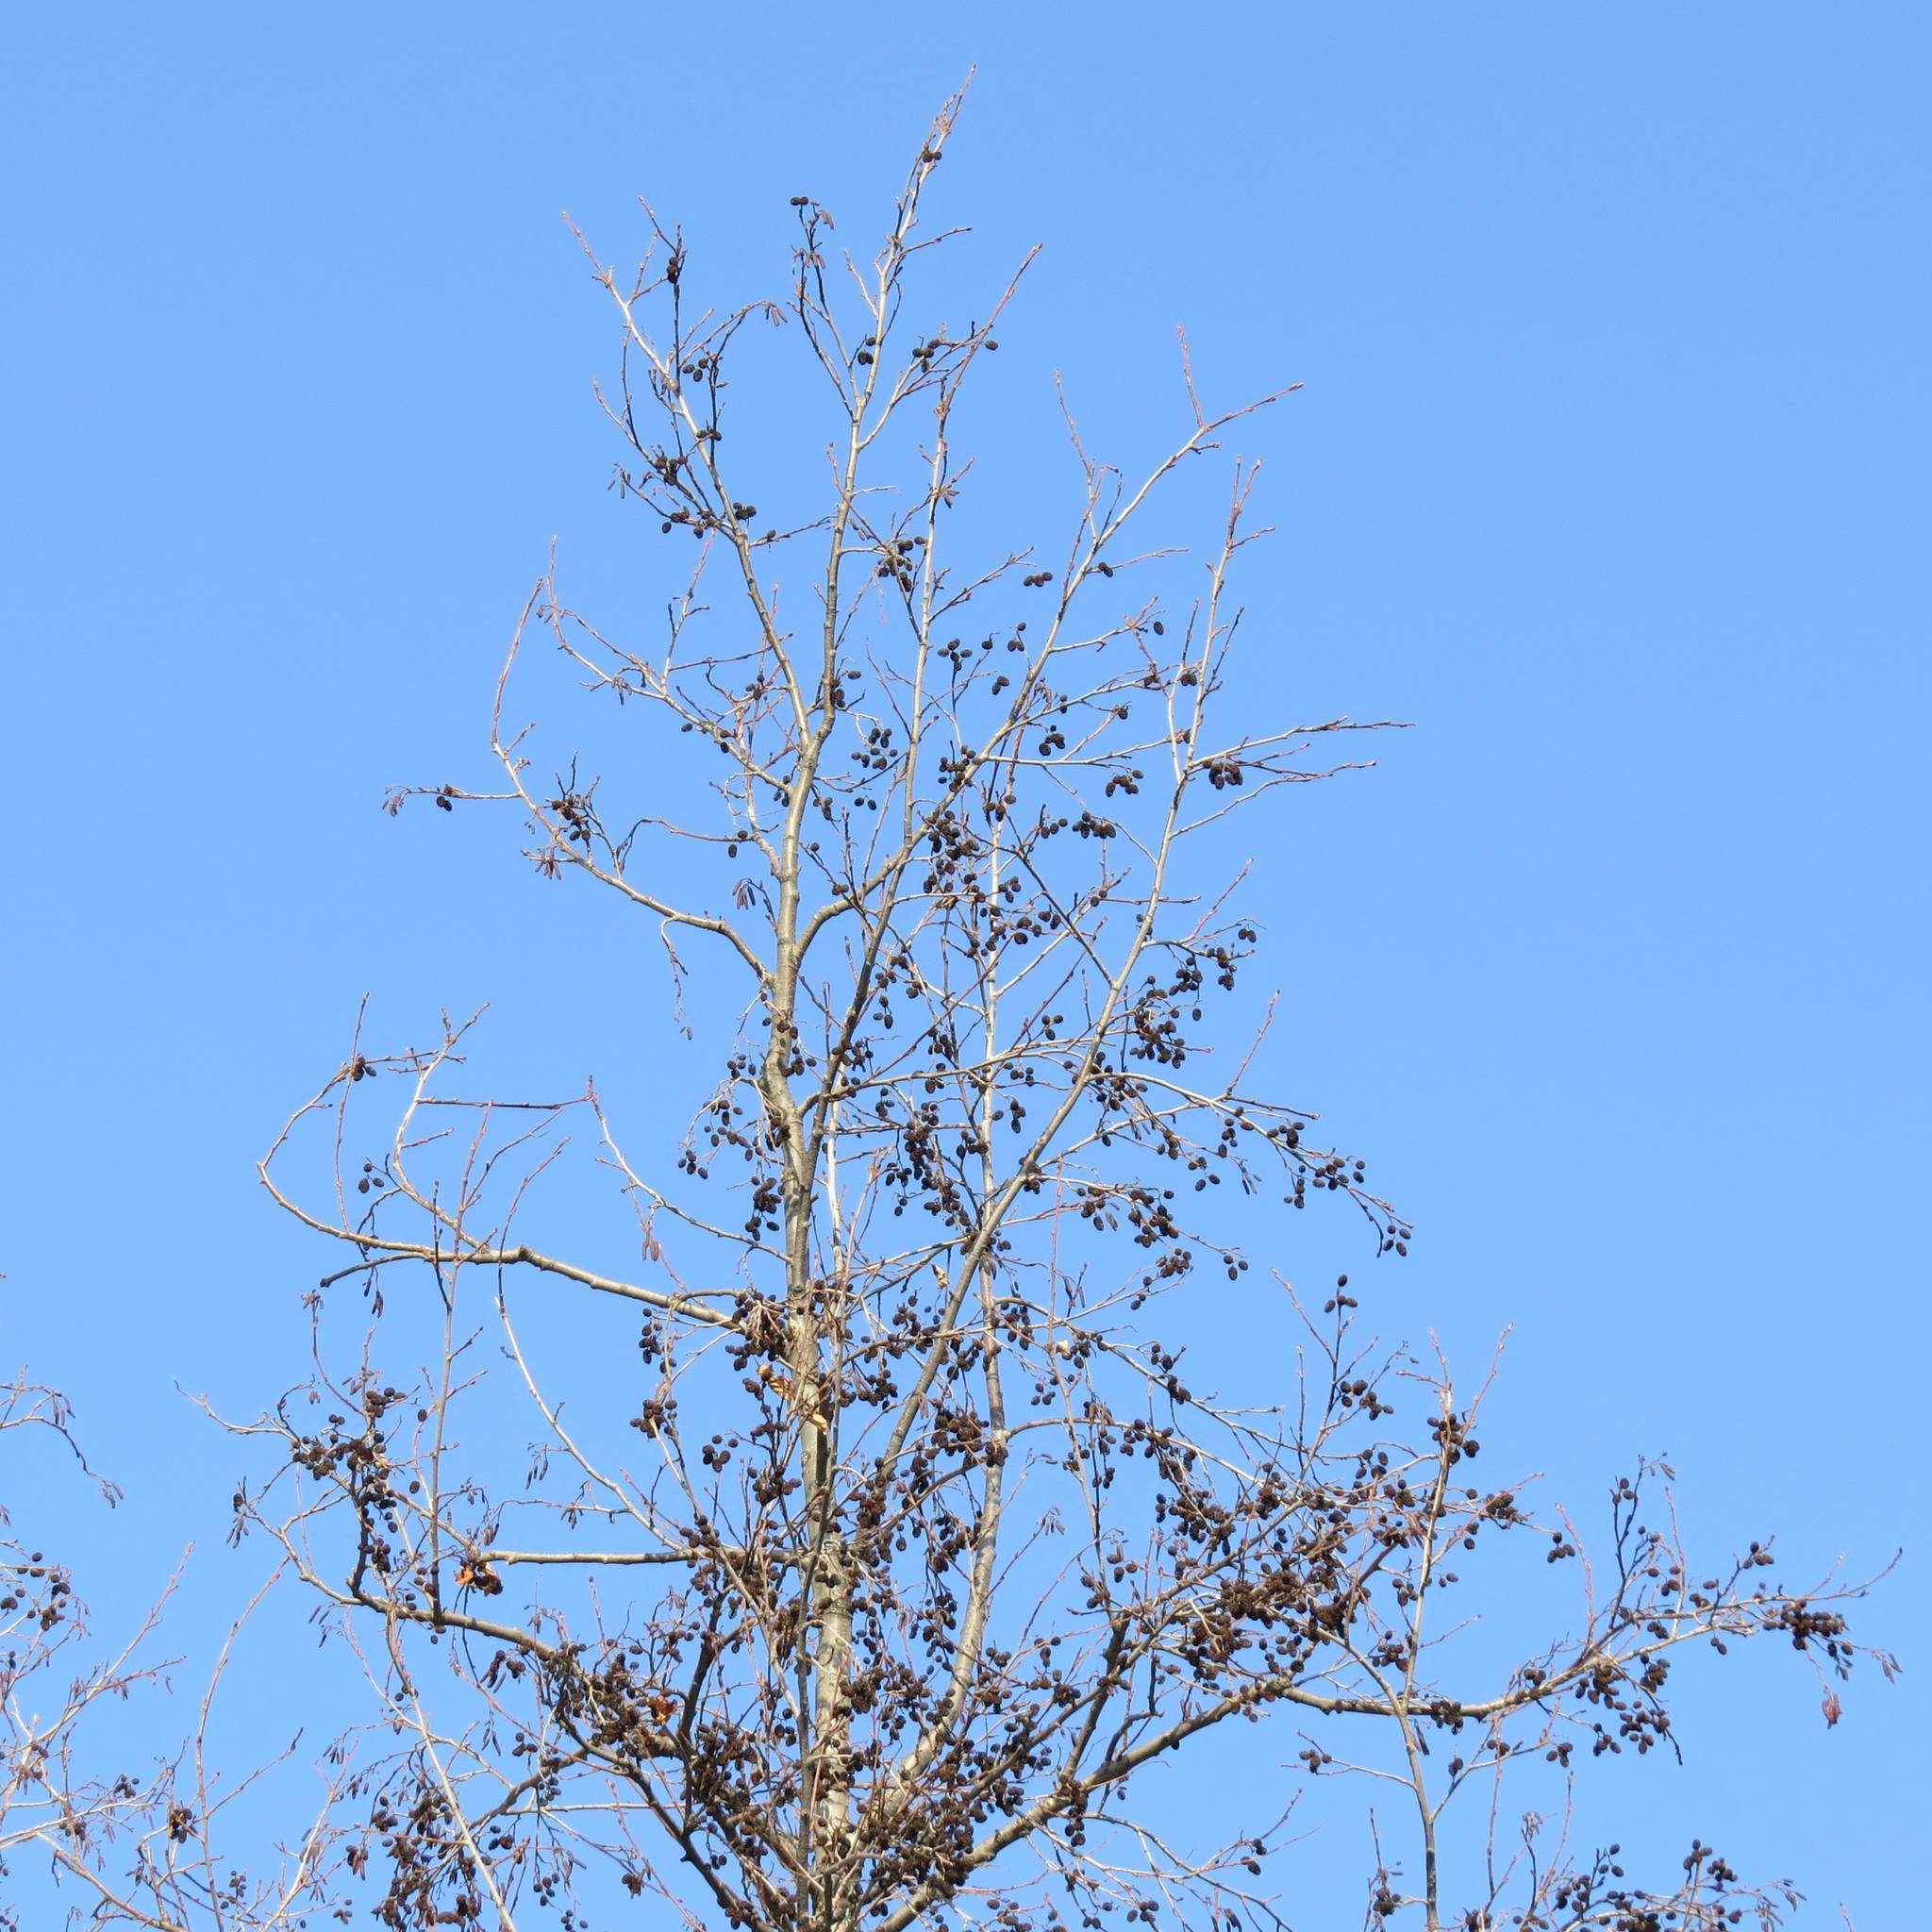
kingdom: Plantae
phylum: Tracheophyta
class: Magnoliopsida
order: Fagales
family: Betulaceae
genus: Alnus
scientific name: Alnus glutinosa
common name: Black alder
